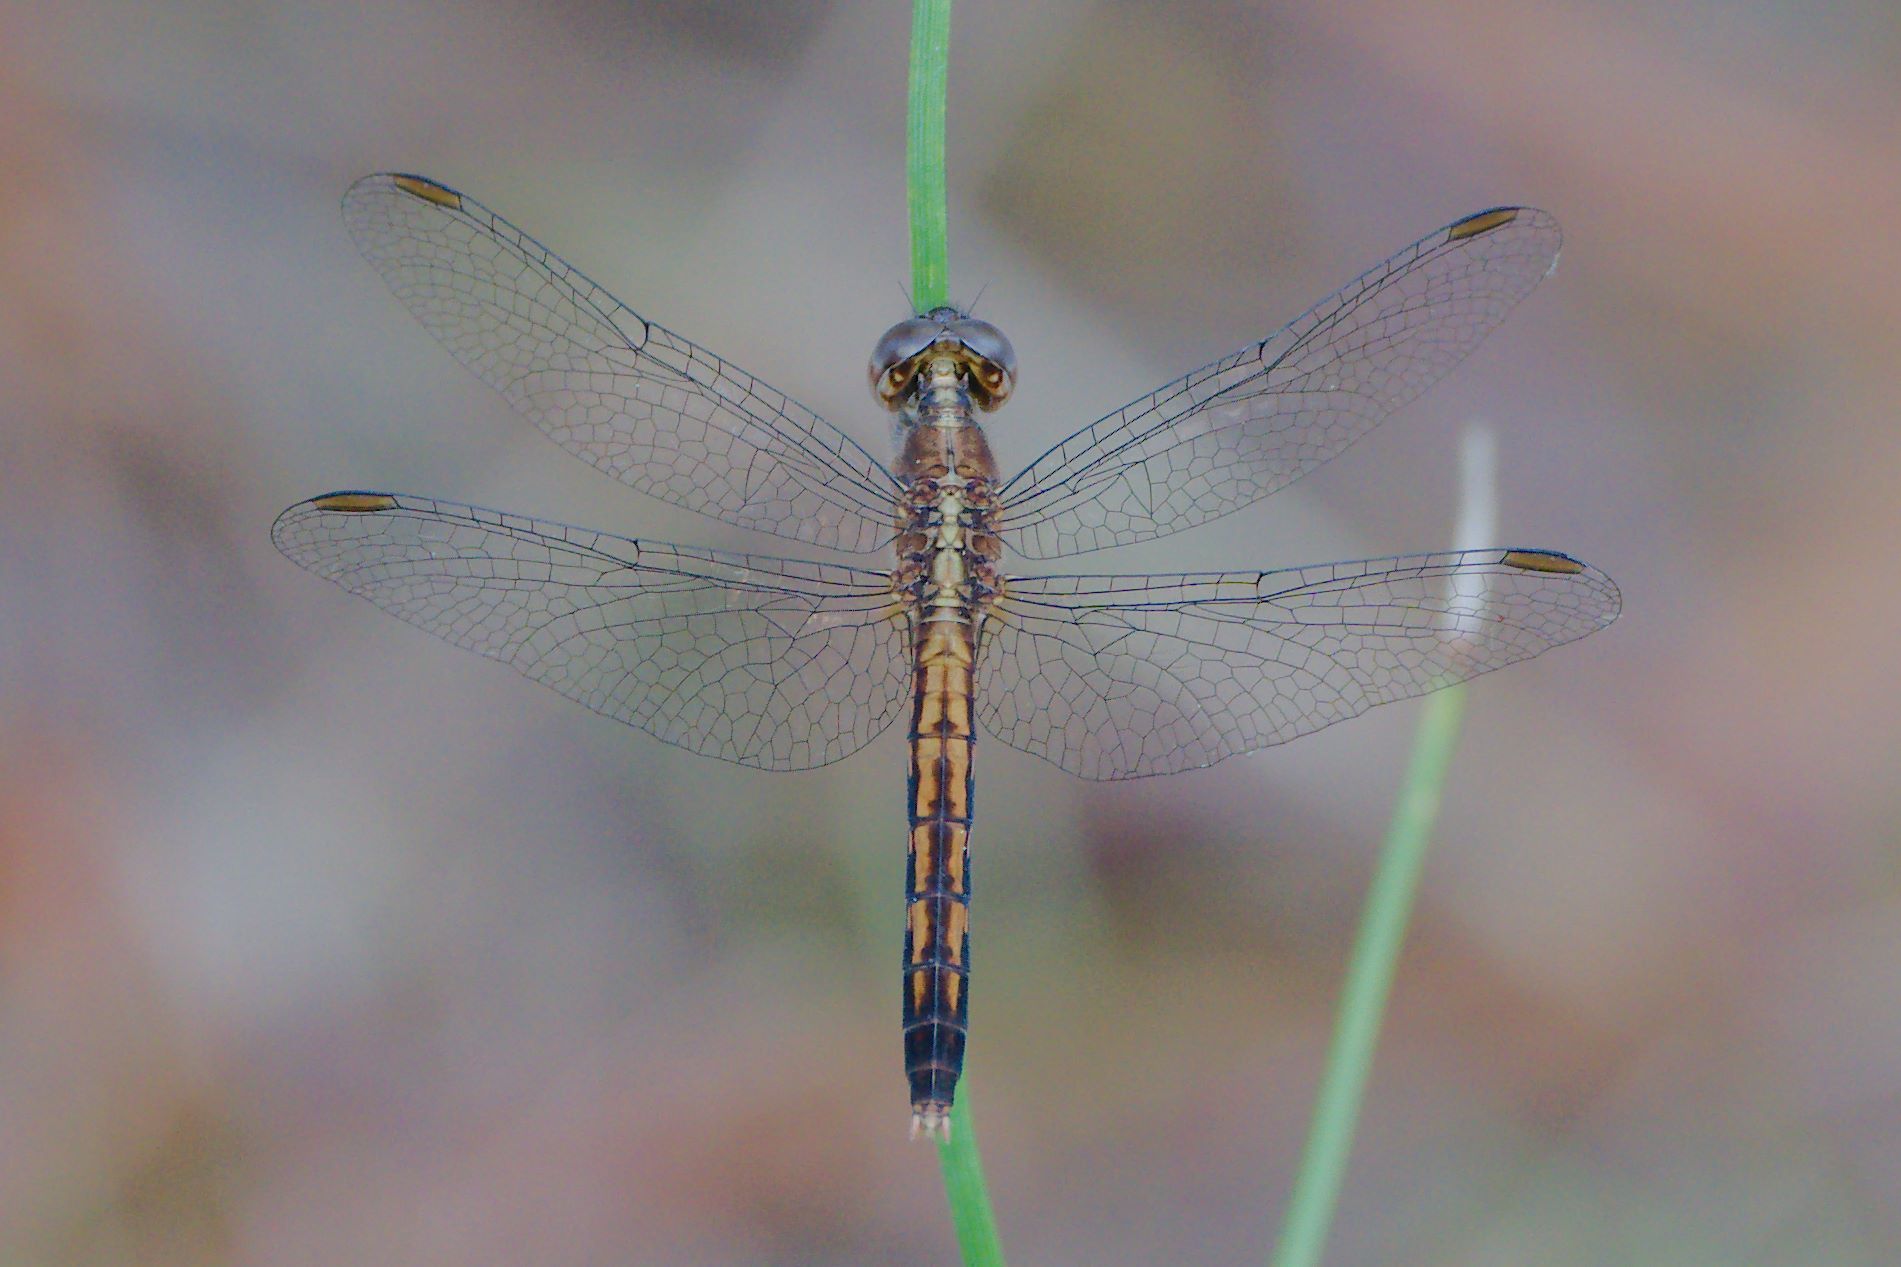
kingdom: Animalia
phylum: Arthropoda
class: Insecta
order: Odonata
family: Libellulidae
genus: Erythrodiplax
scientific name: Erythrodiplax minuscula
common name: Little blue dragonlet
